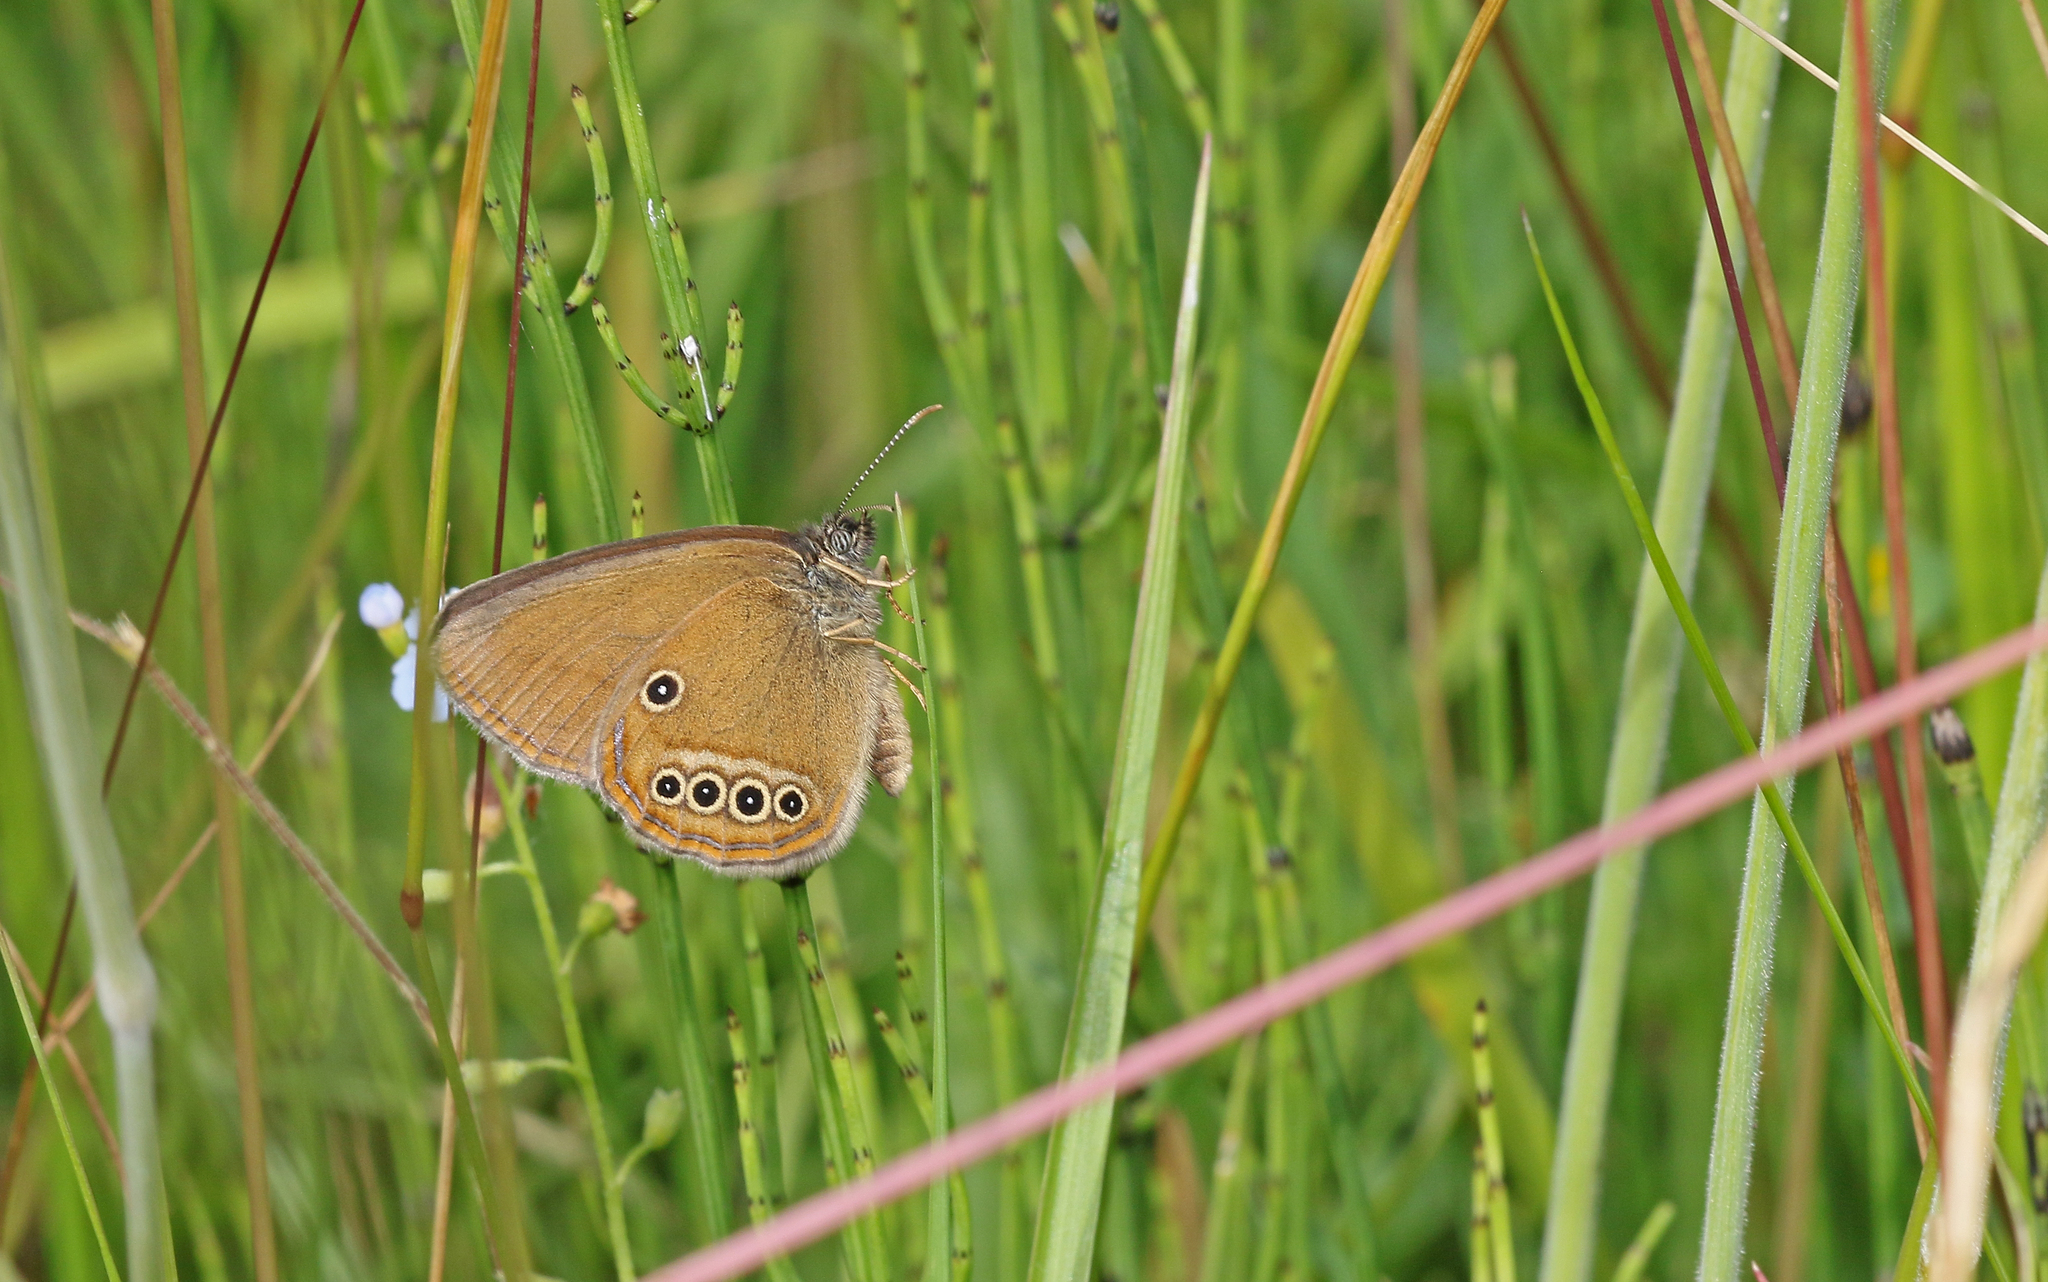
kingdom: Animalia
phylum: Arthropoda
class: Insecta
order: Lepidoptera
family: Nymphalidae
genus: Coenonympha
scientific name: Coenonympha oedippus
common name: False ringlet
